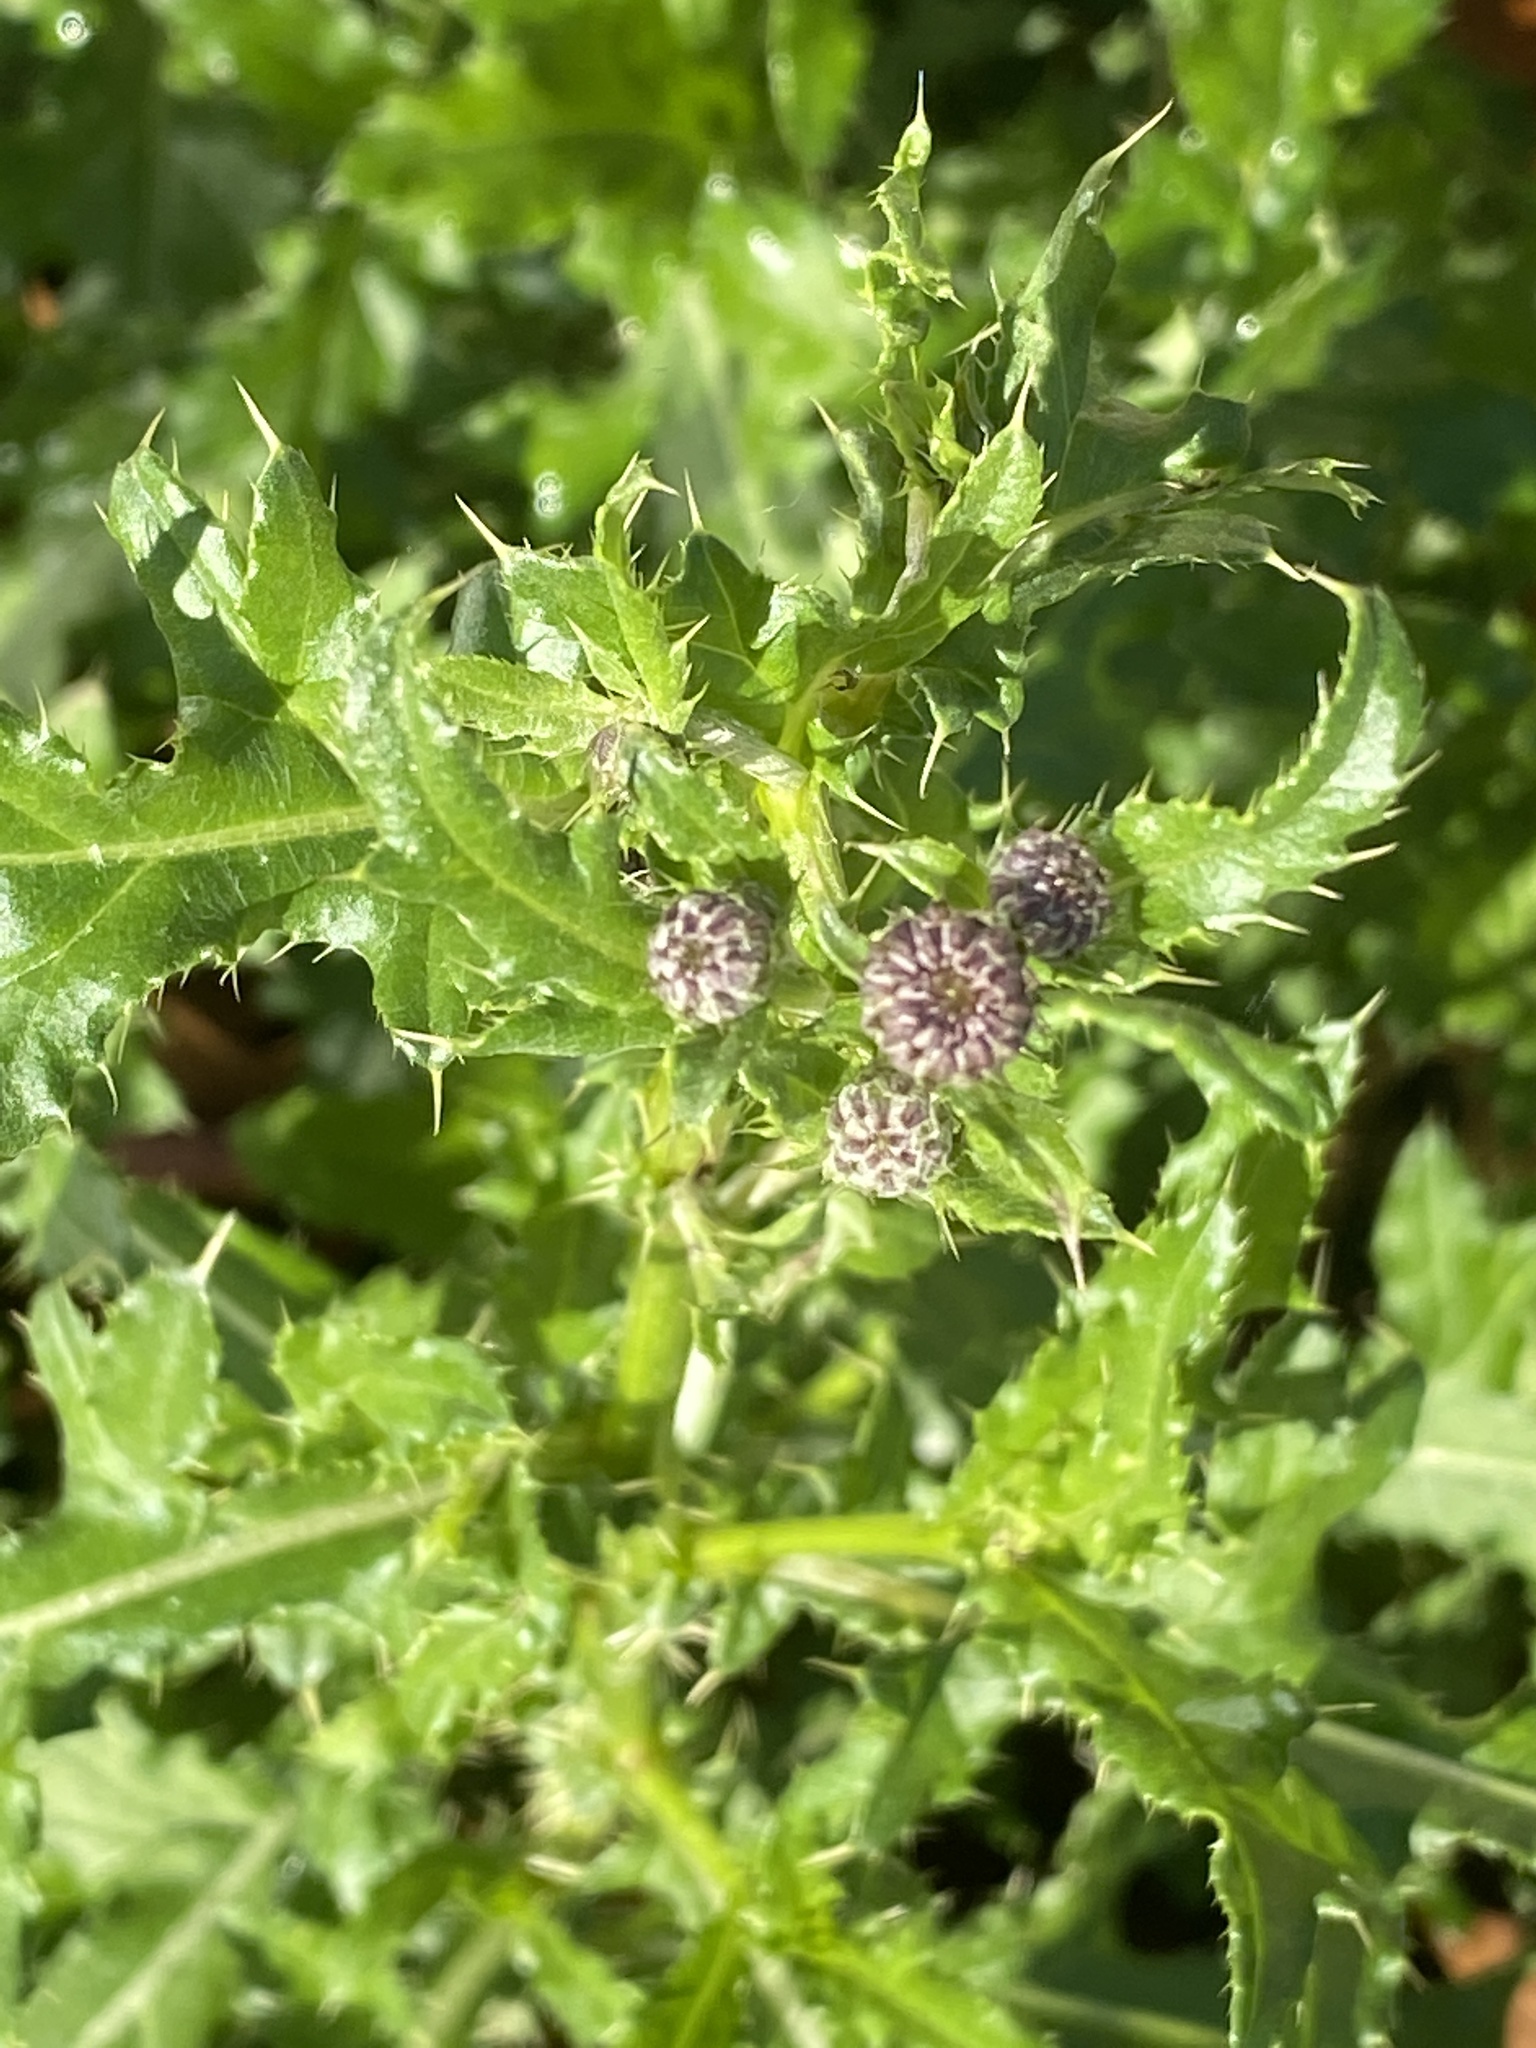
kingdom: Plantae
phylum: Tracheophyta
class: Magnoliopsida
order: Asterales
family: Asteraceae
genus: Cirsium
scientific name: Cirsium arvense
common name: Creeping thistle
